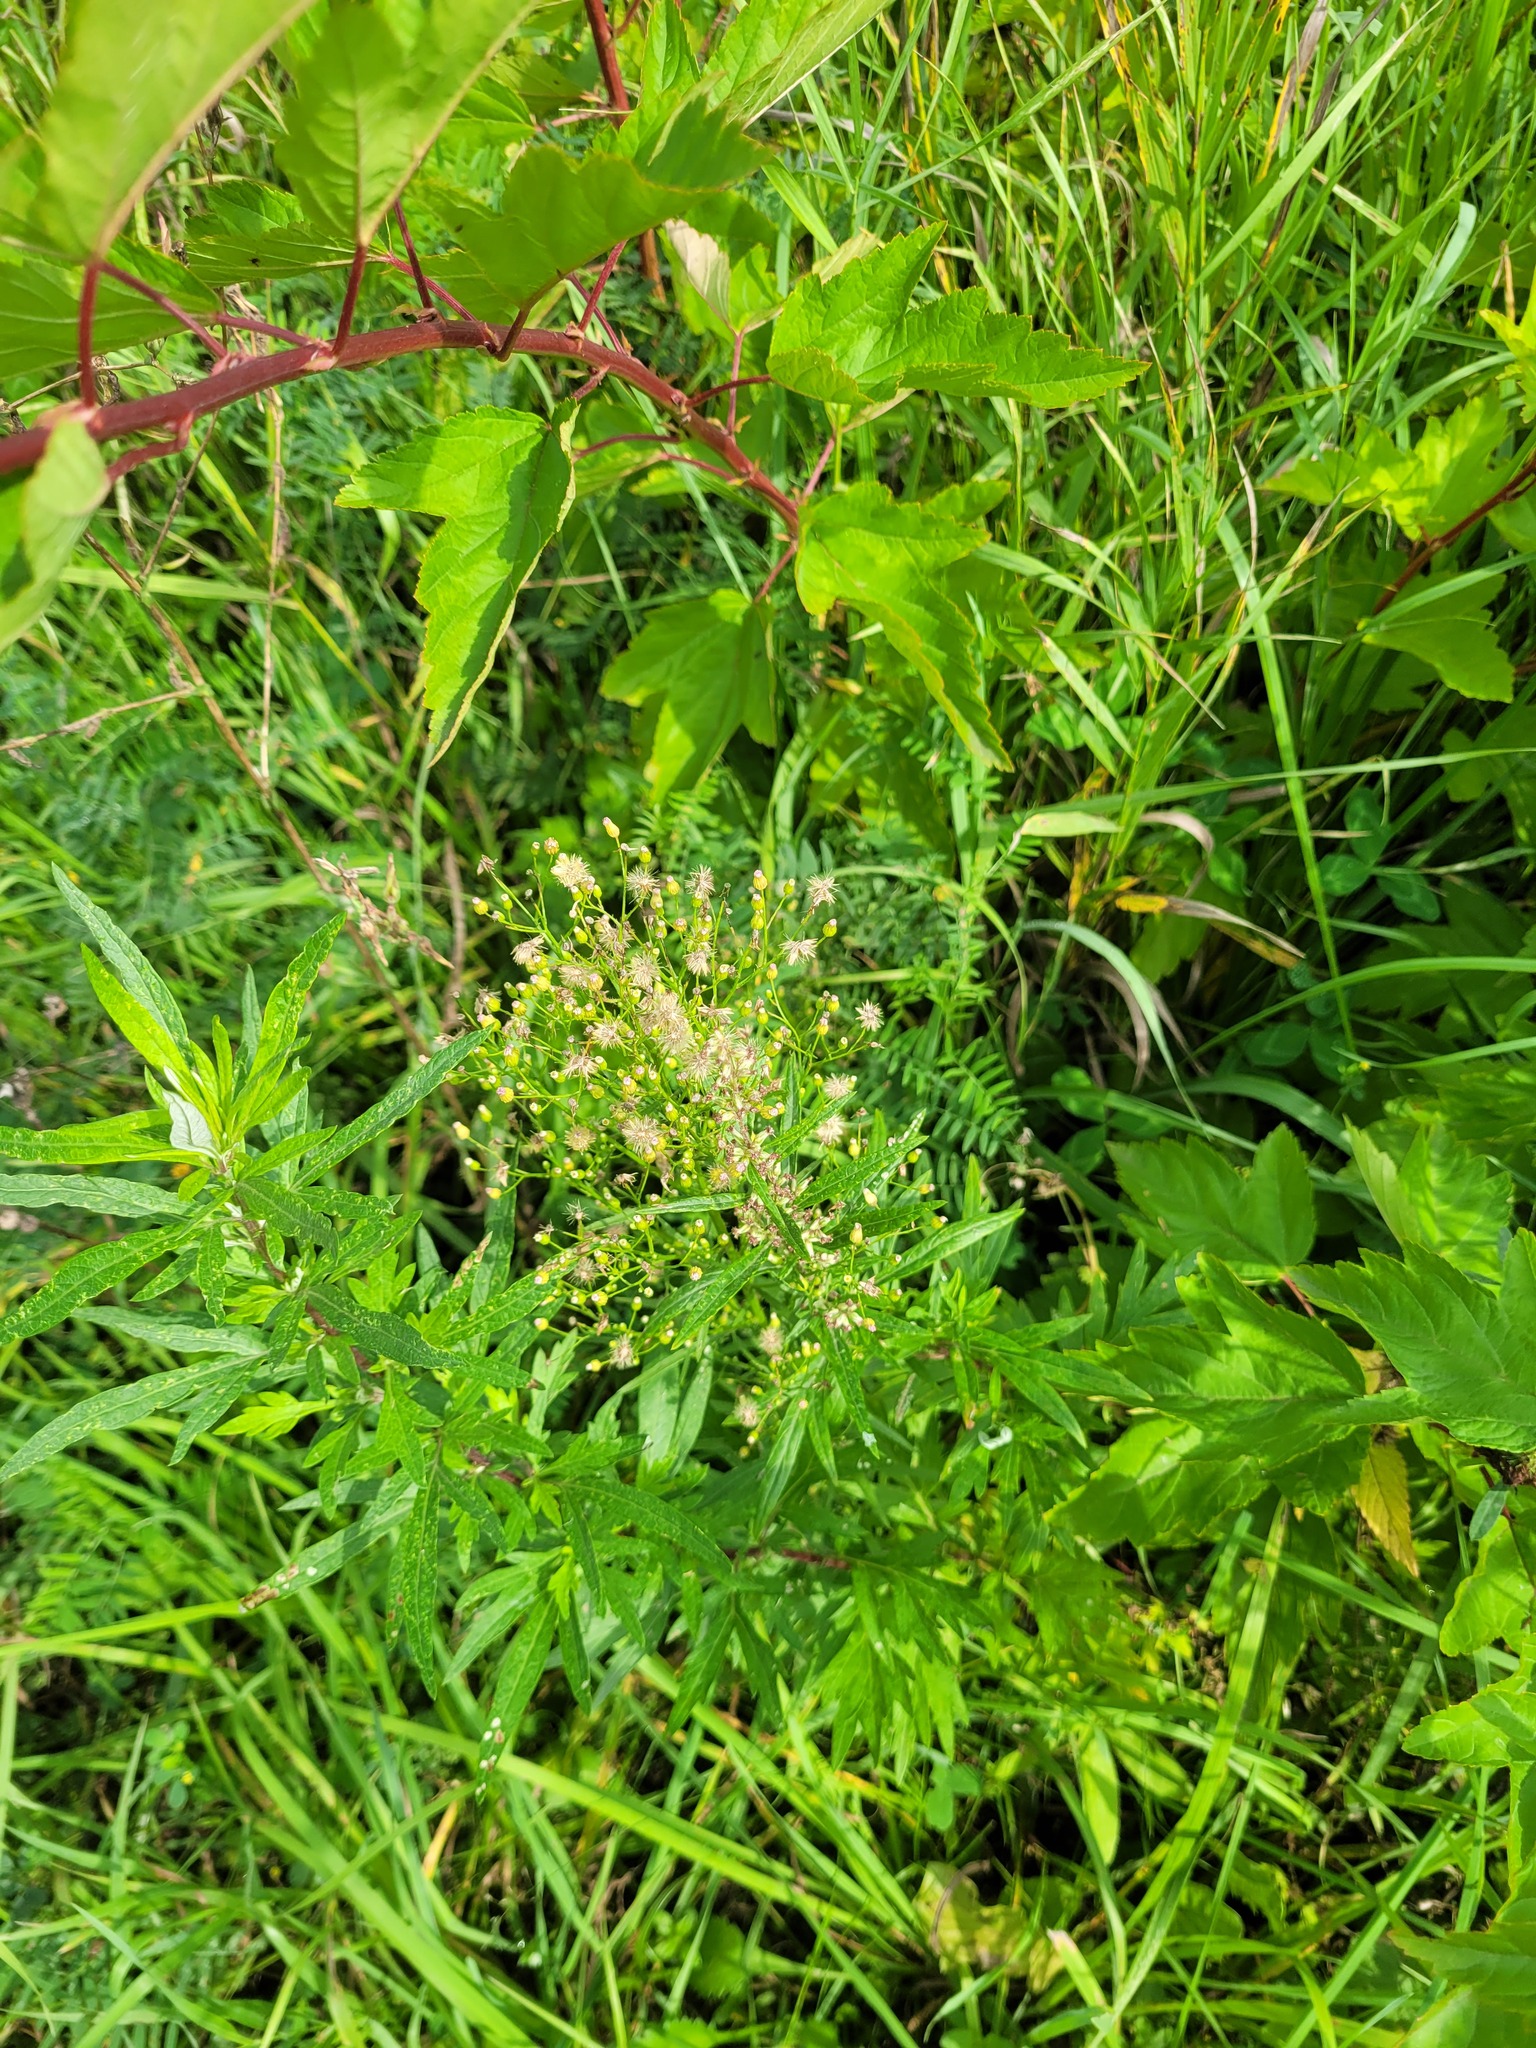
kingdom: Plantae
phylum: Tracheophyta
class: Magnoliopsida
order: Asterales
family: Asteraceae
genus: Erigeron
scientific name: Erigeron canadensis
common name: Canadian fleabane
